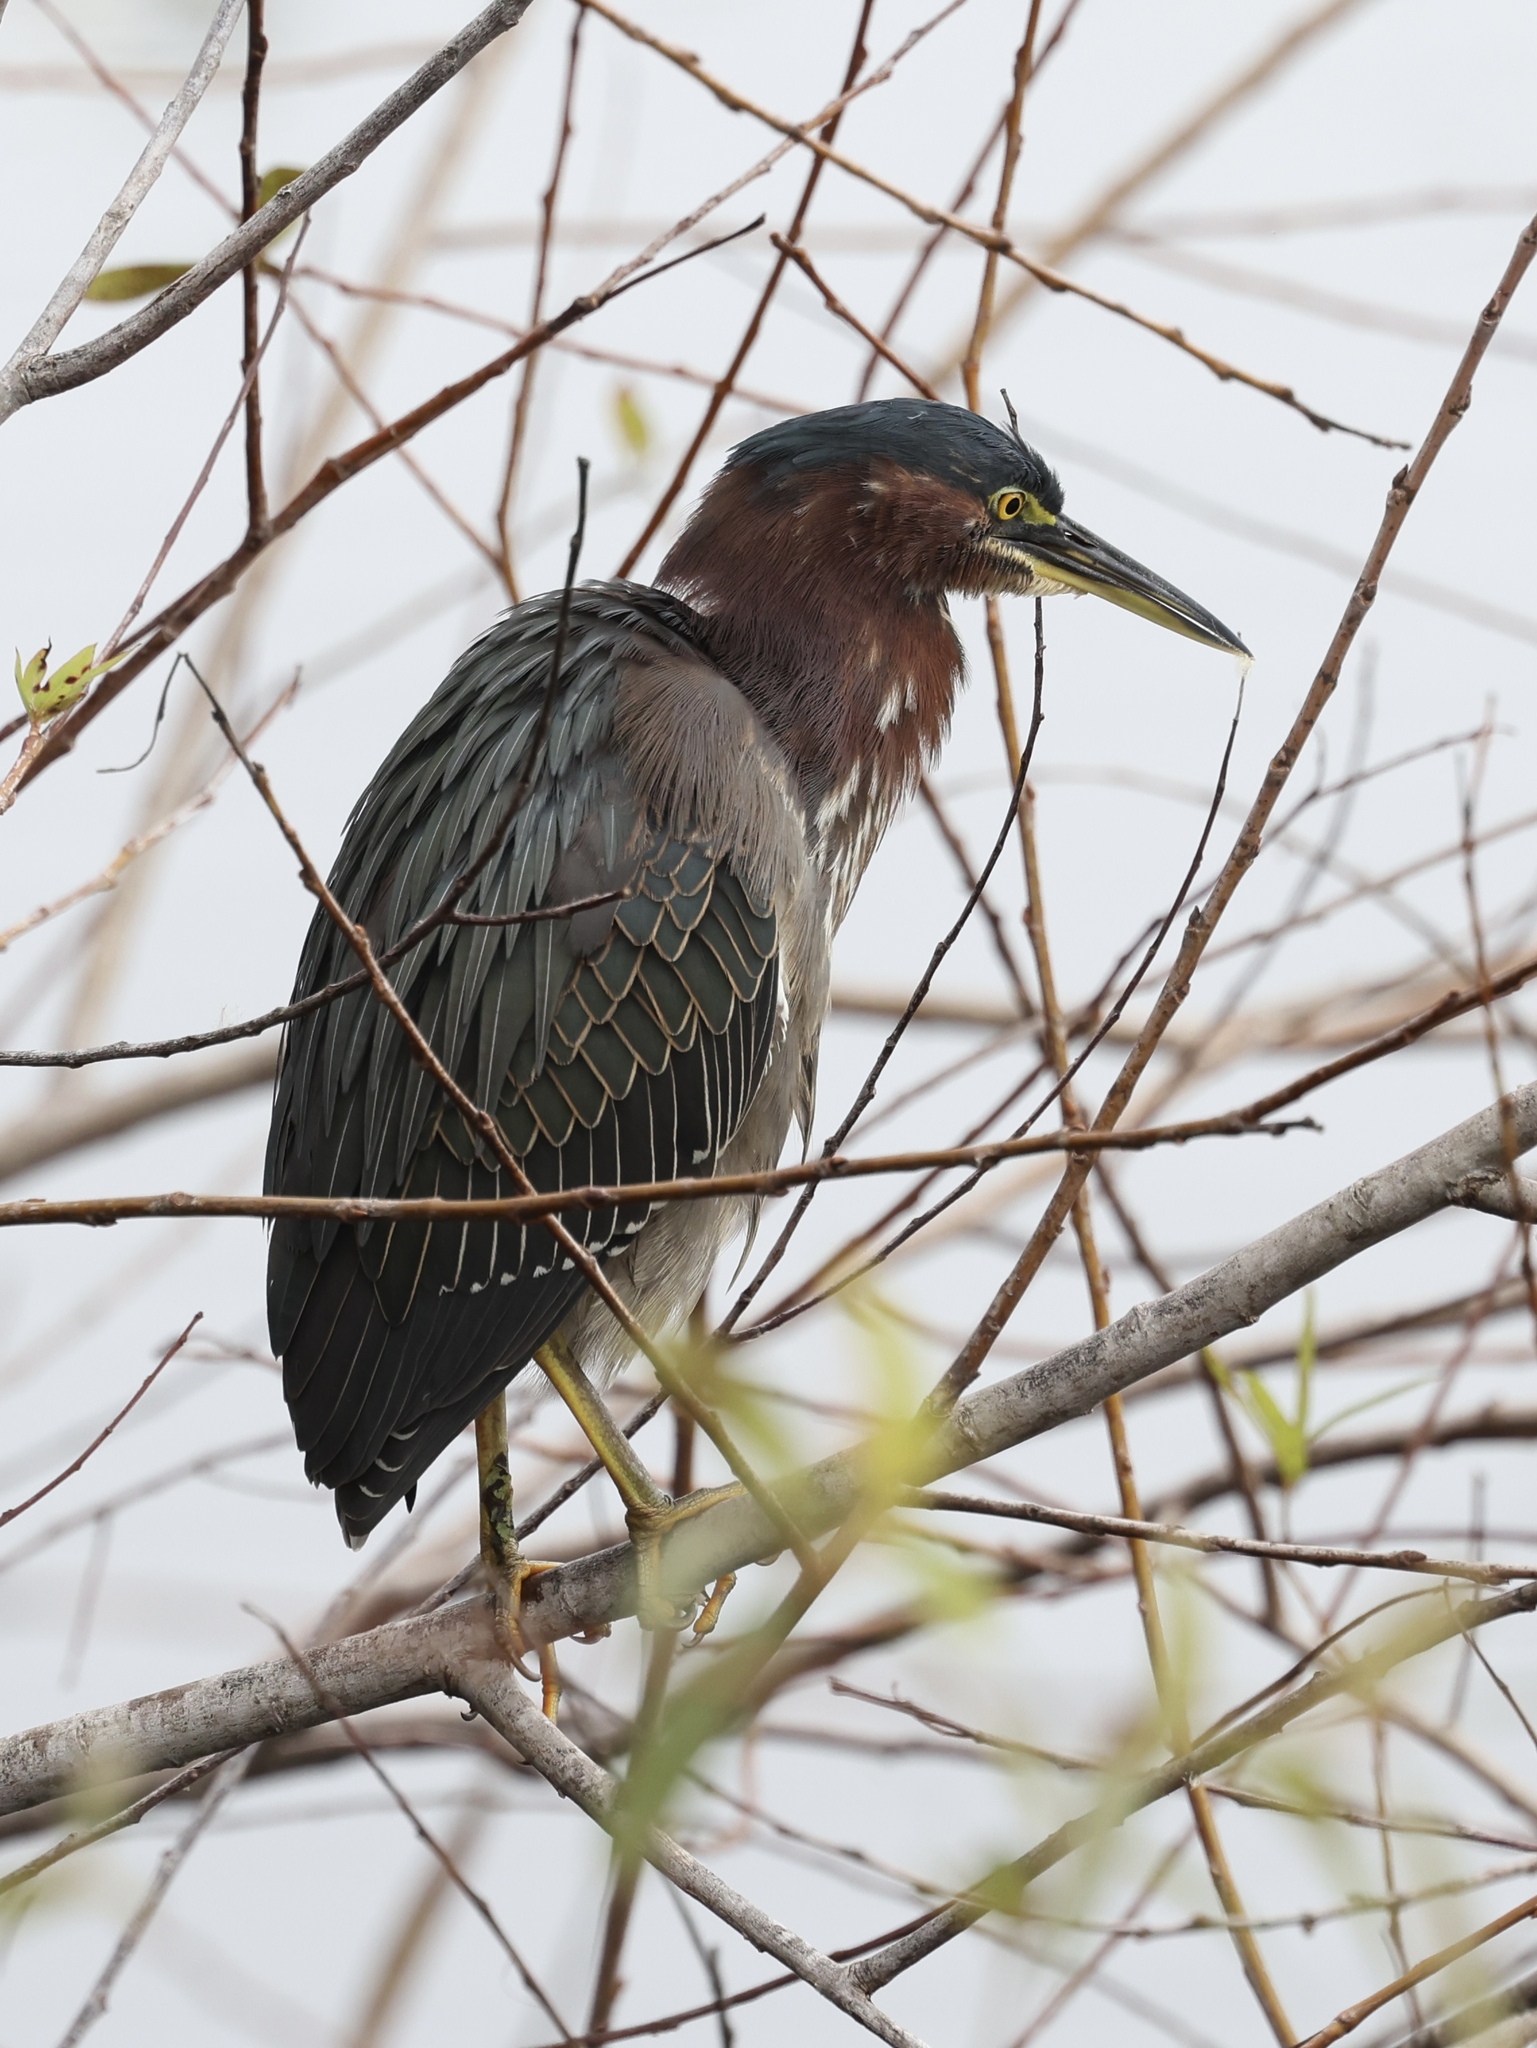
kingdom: Animalia
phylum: Chordata
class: Aves
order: Pelecaniformes
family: Ardeidae
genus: Butorides
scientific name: Butorides virescens
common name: Green heron
